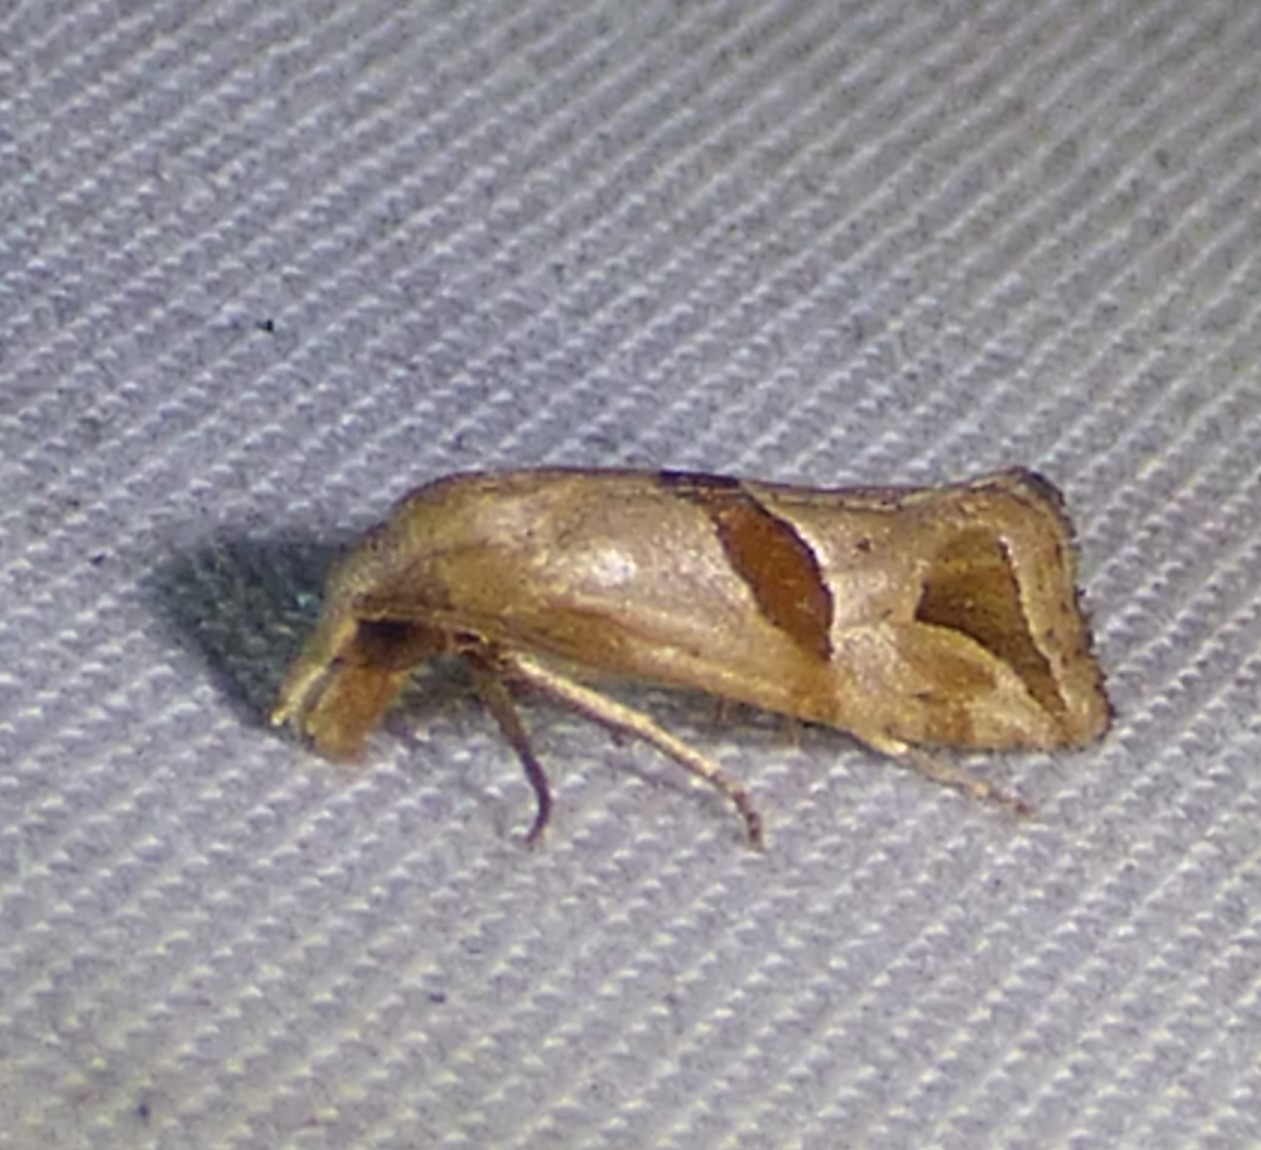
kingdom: Animalia
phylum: Arthropoda
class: Insecta
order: Lepidoptera
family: Tortricidae
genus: Eugnosta
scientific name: Eugnosta sartana
